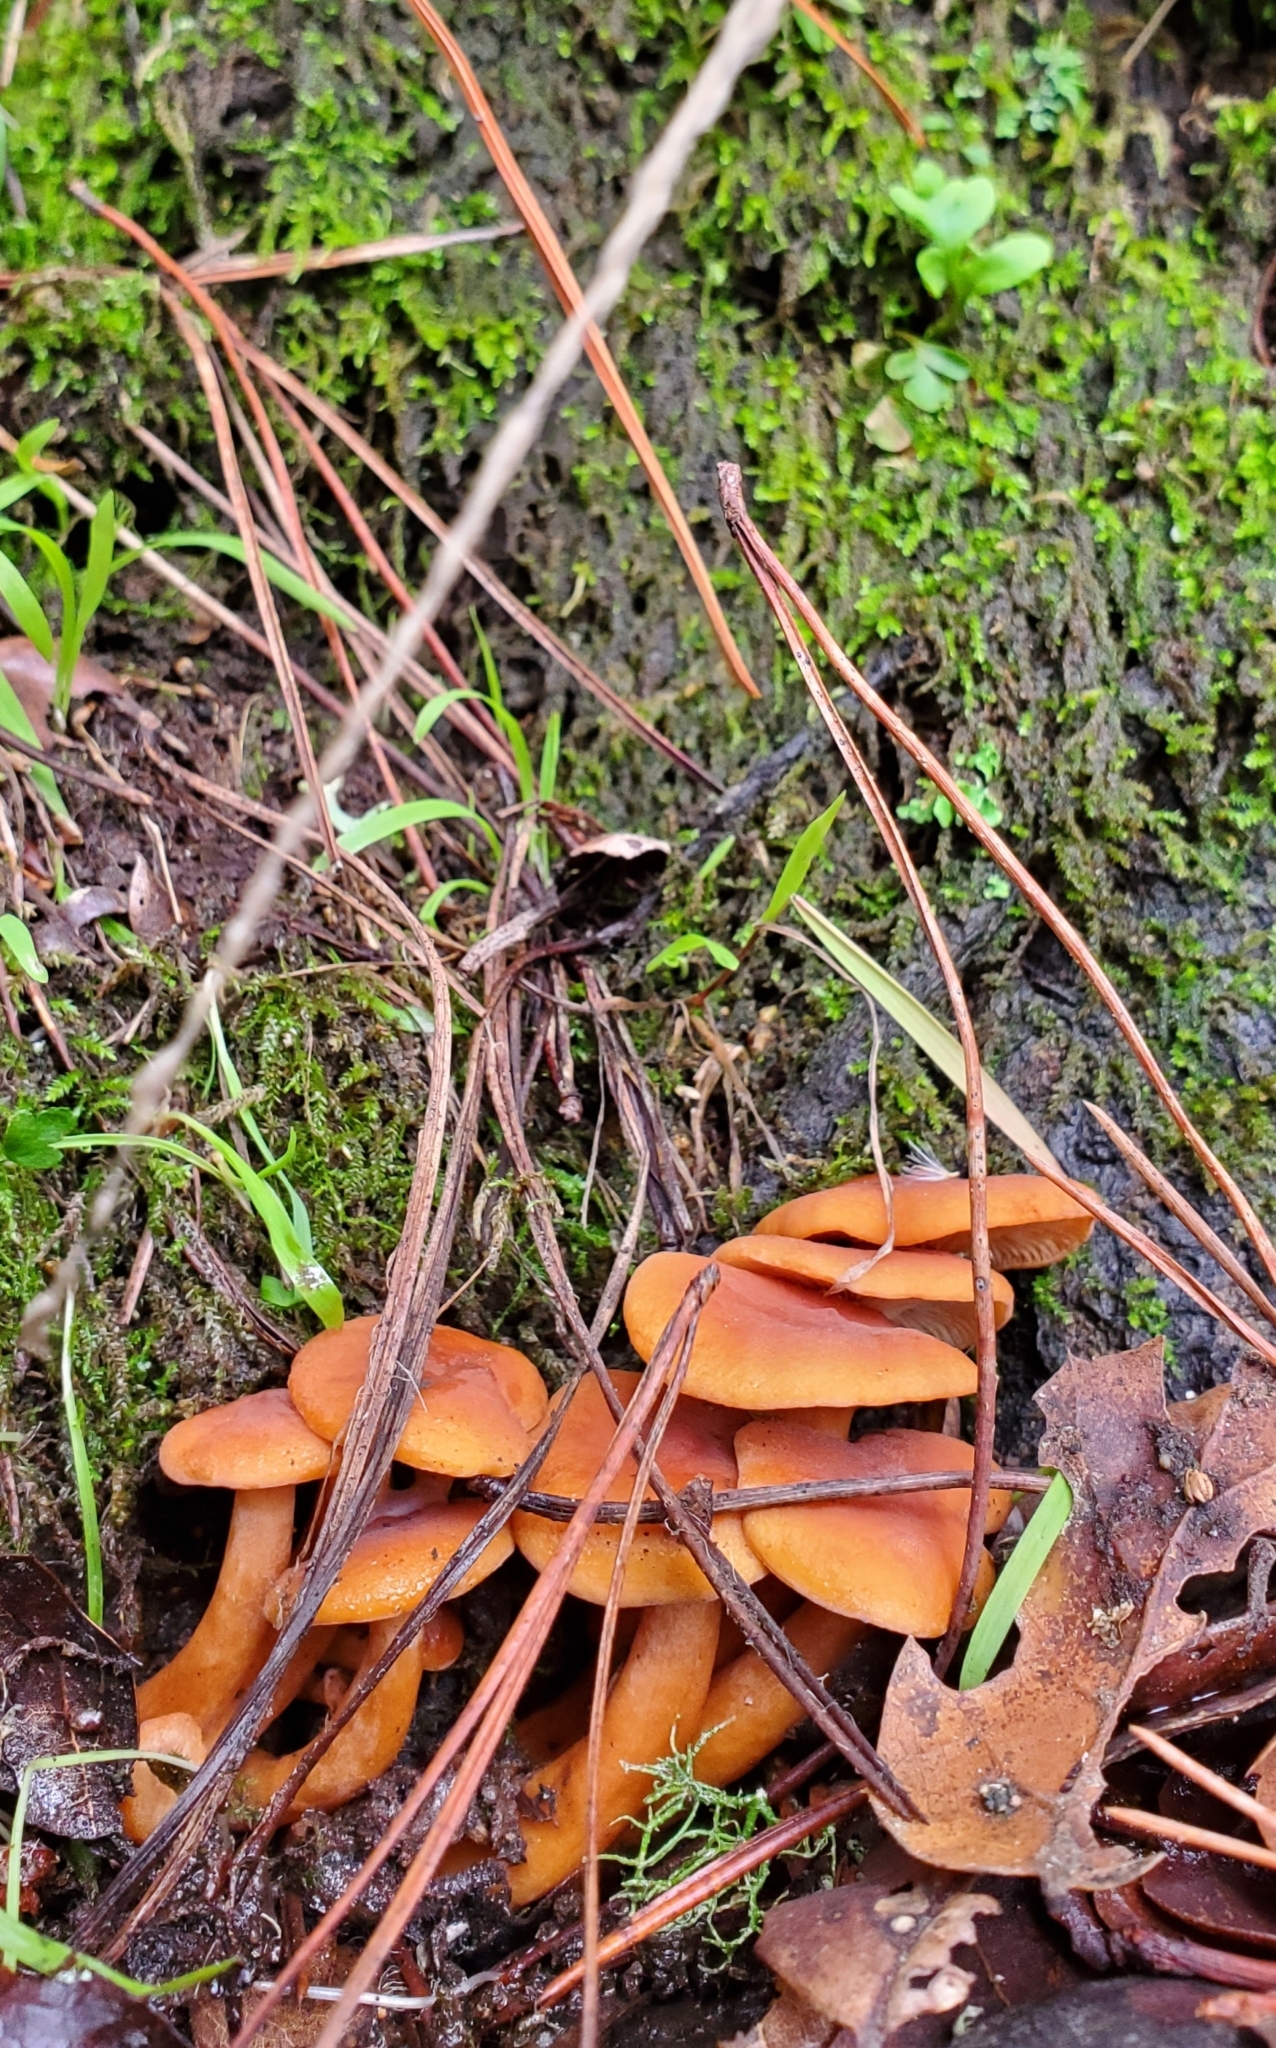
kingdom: Fungi
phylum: Basidiomycota
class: Agaricomycetes
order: Russulales
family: Russulaceae
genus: Lactarius
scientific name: Lactarius rubidus
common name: Candy cap
